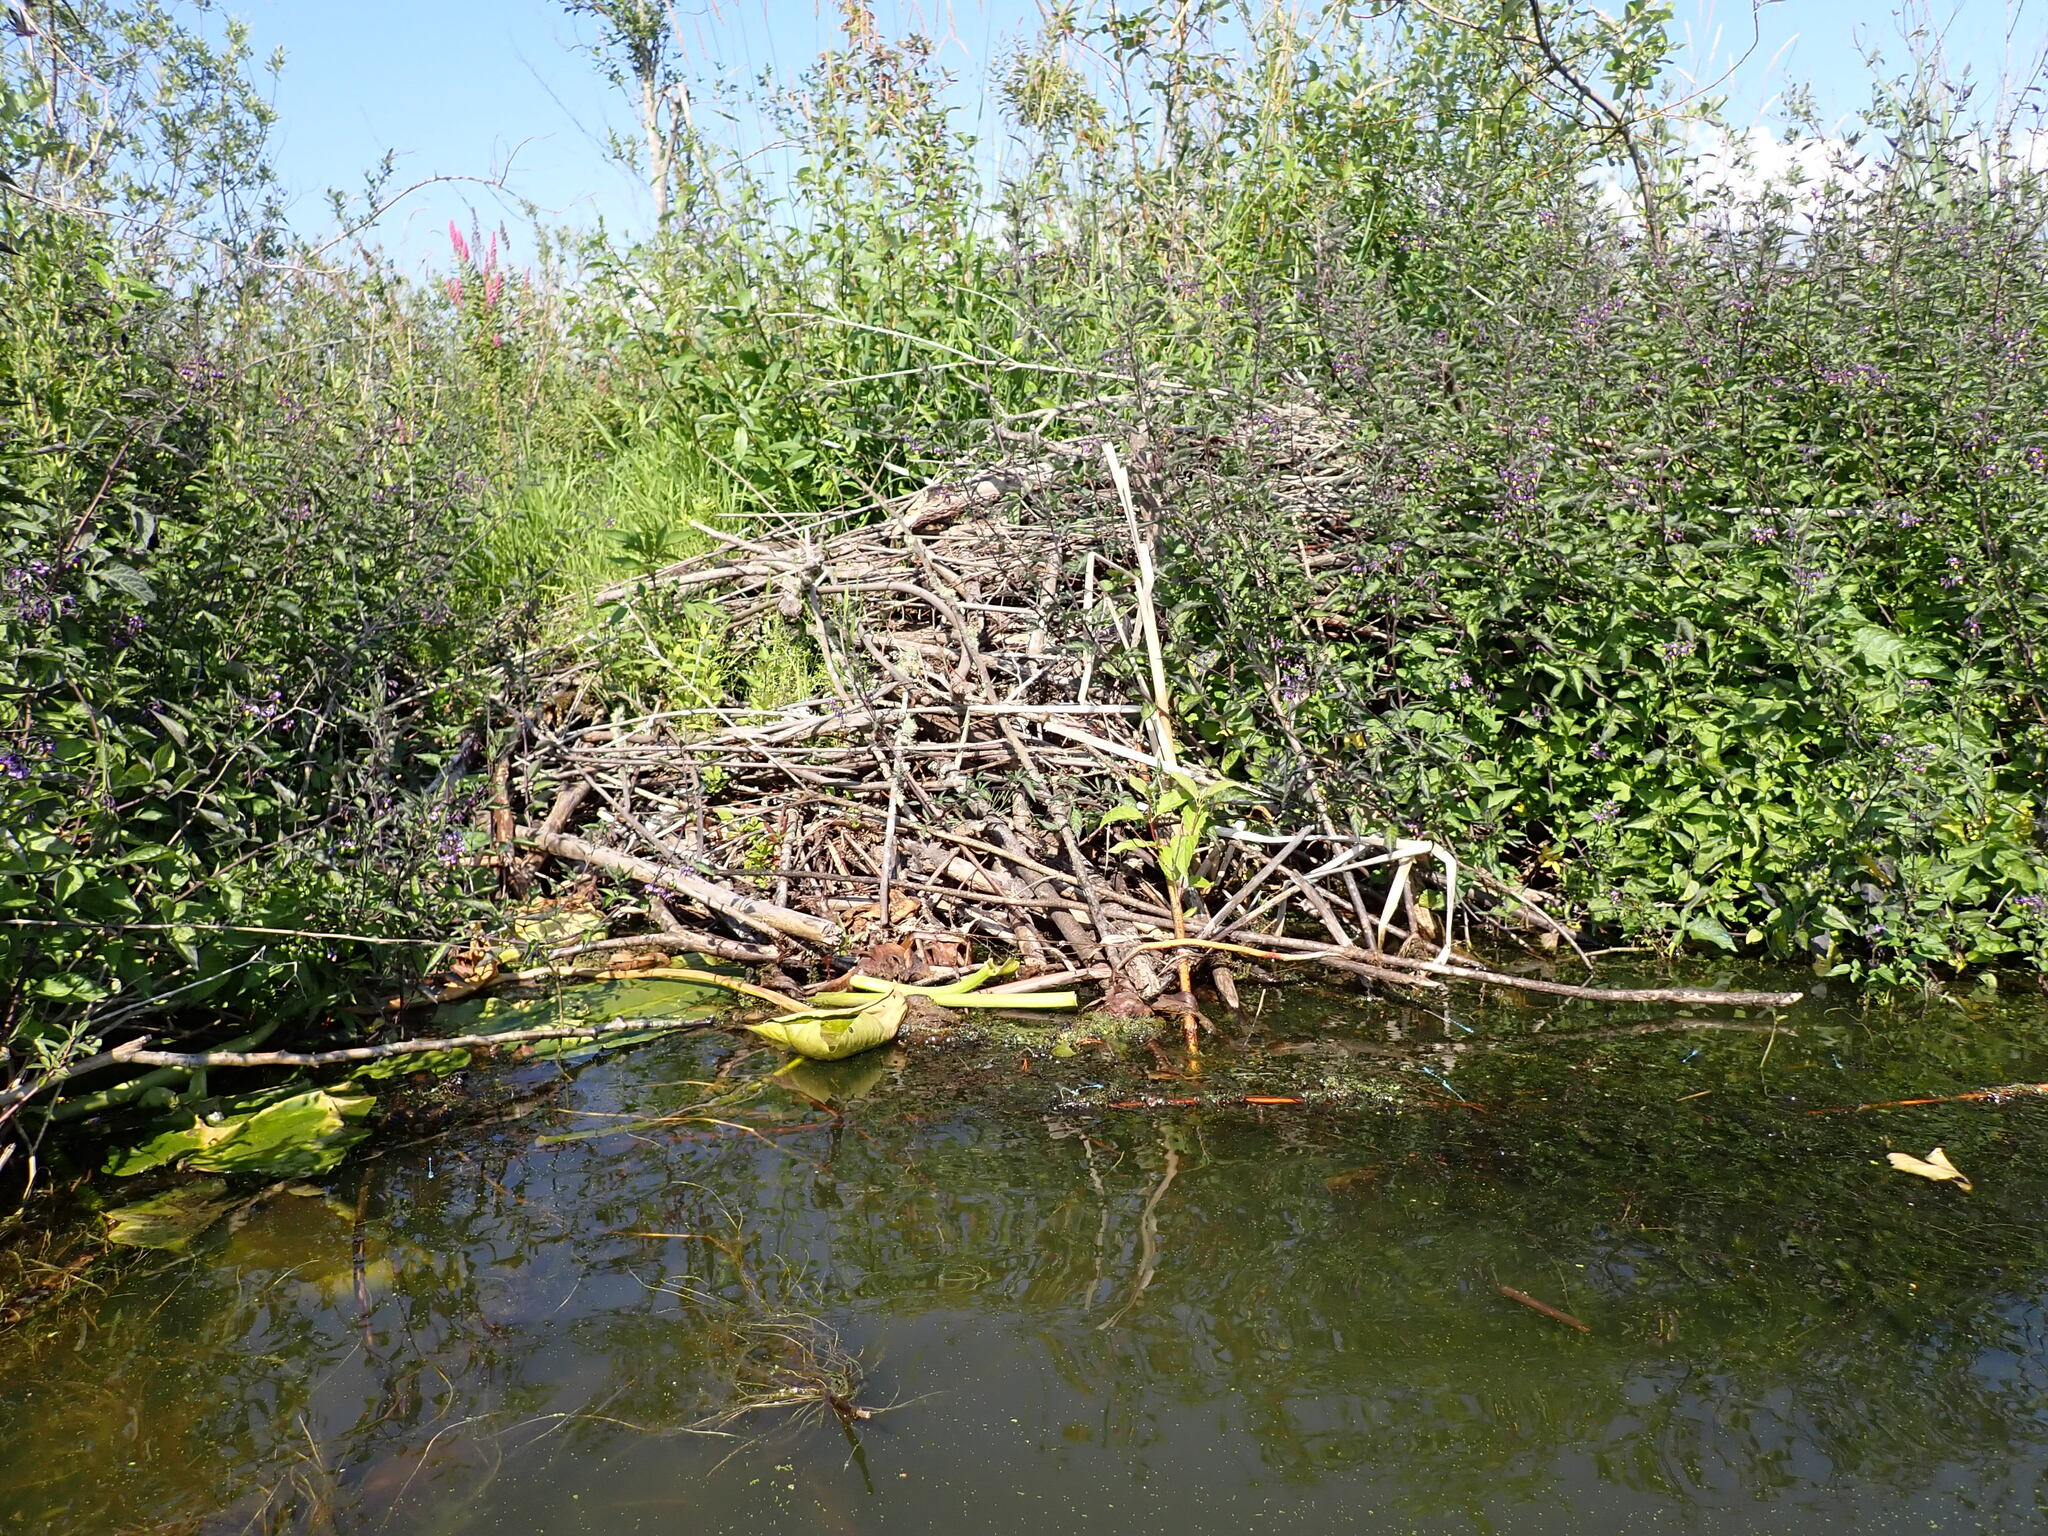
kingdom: Animalia
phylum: Chordata
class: Mammalia
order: Rodentia
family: Castoridae
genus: Castor
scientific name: Castor canadensis
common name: American beaver
